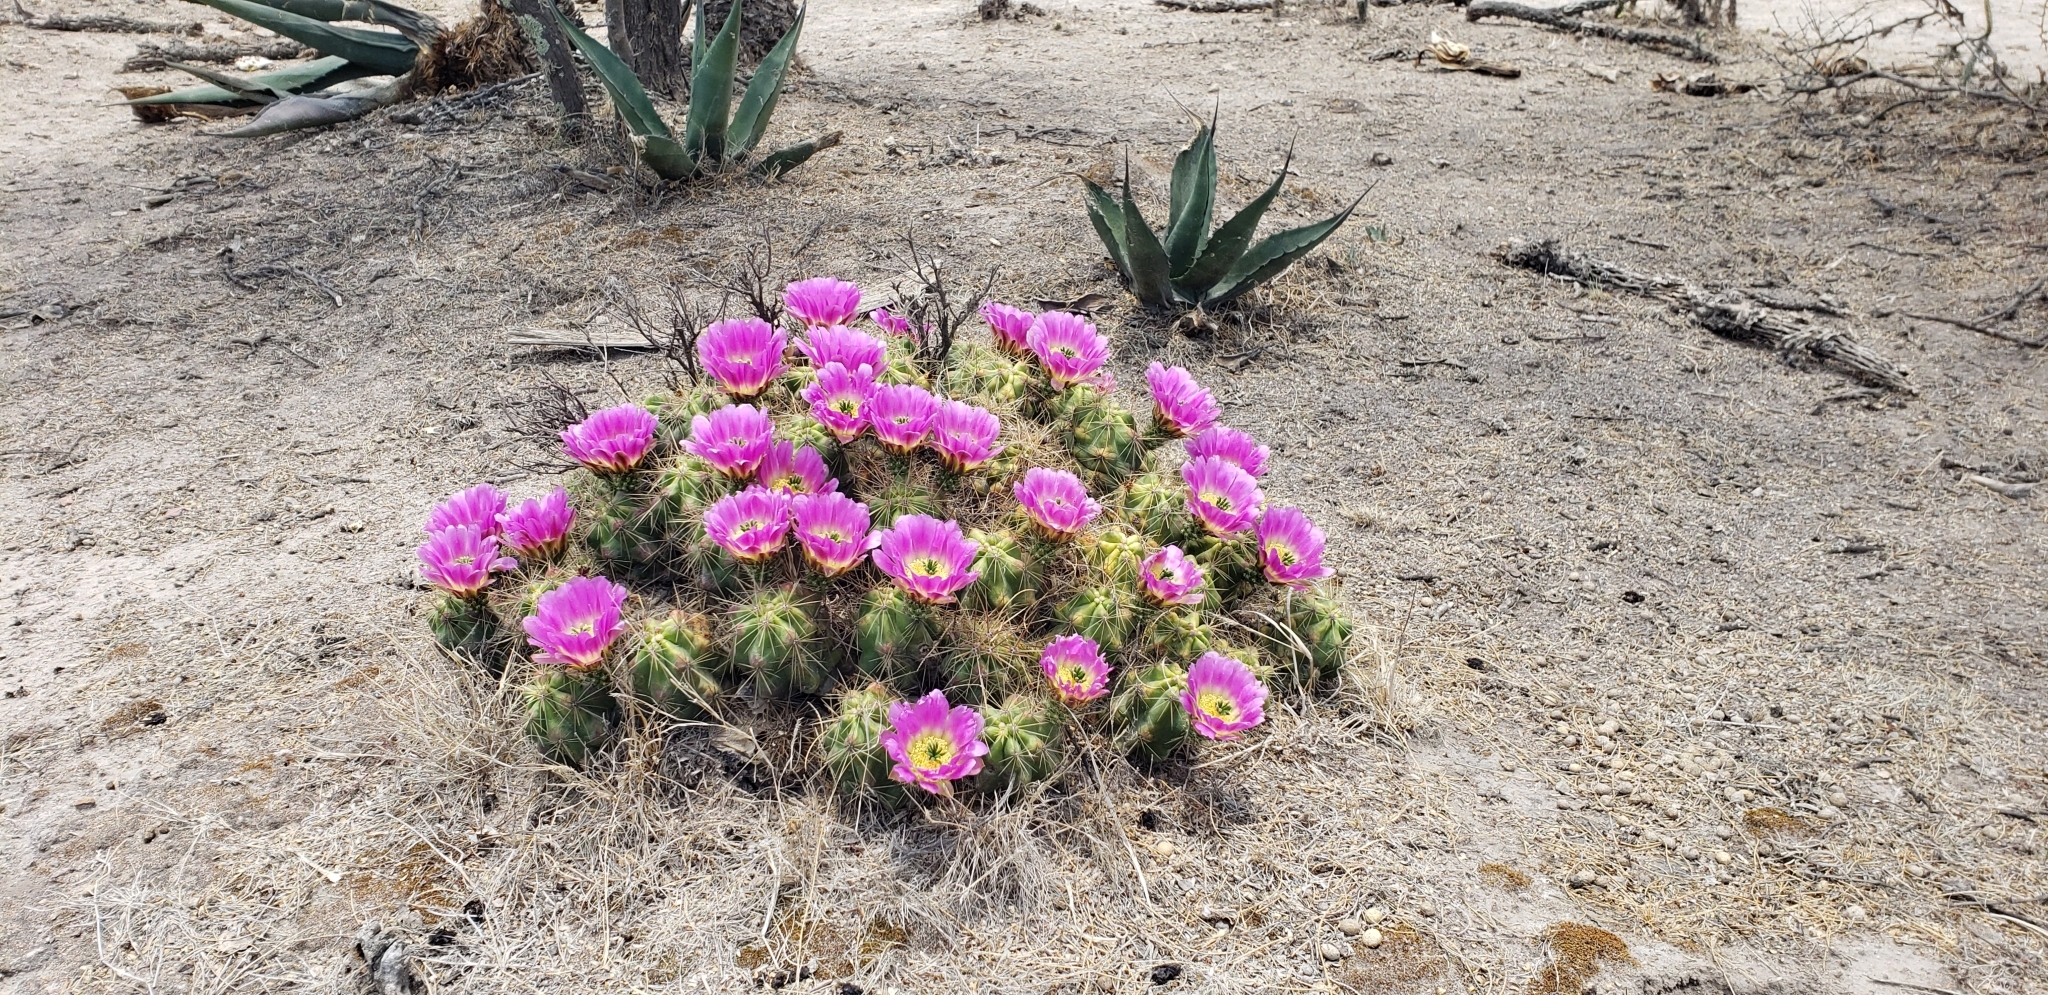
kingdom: Plantae
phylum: Tracheophyta
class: Magnoliopsida
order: Caryophyllales
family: Cactaceae
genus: Echinocereus
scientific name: Echinocereus cinerascens
